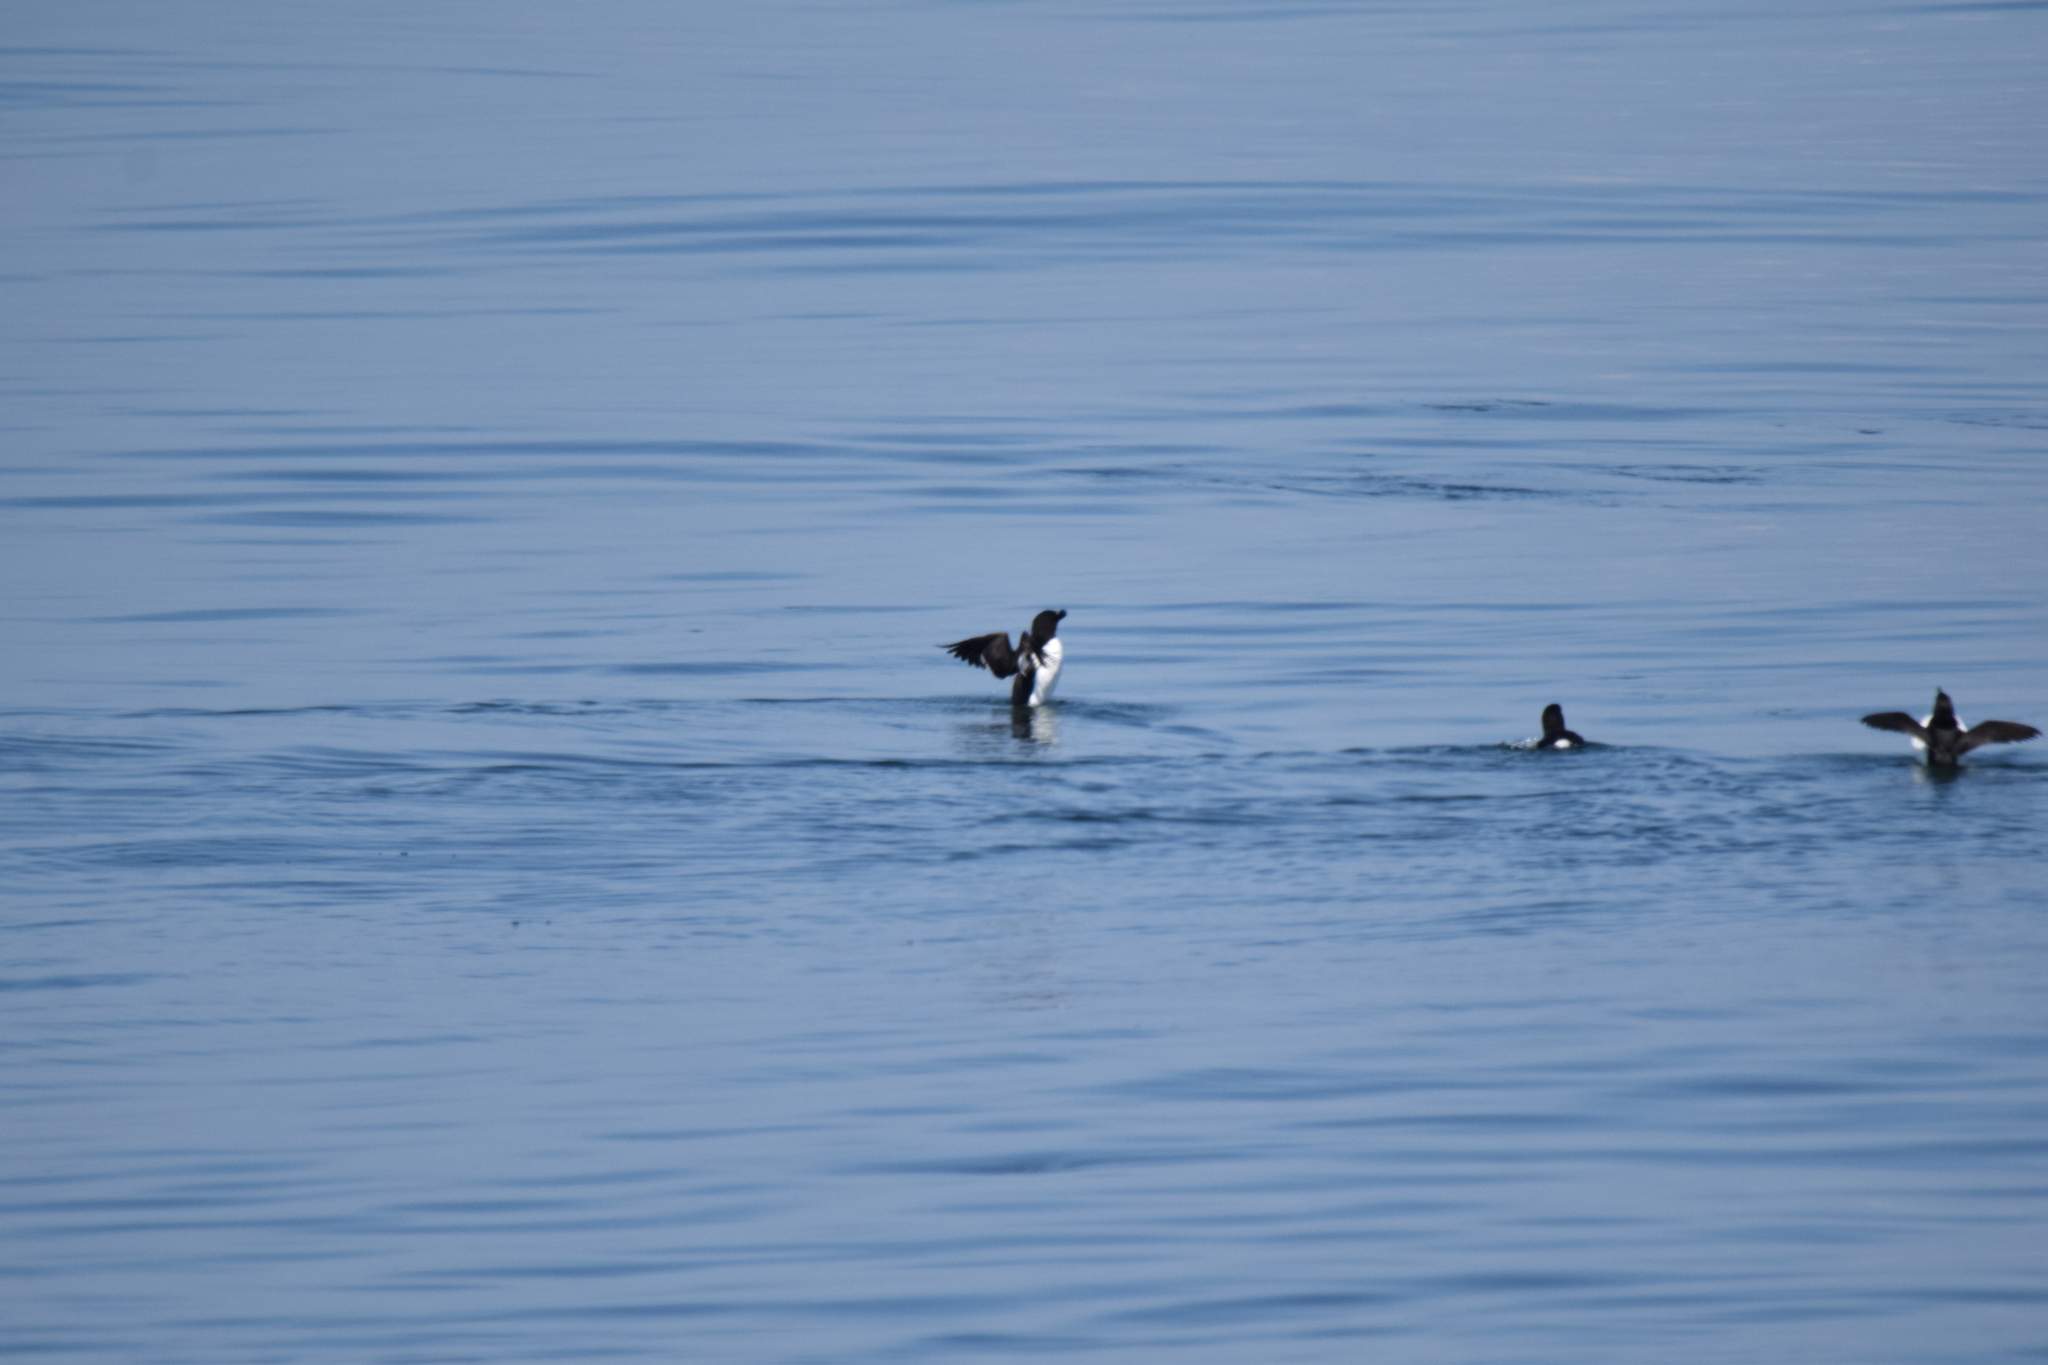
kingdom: Animalia
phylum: Chordata
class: Aves
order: Charadriiformes
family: Alcidae
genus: Alca
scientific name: Alca torda
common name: Razorbill
